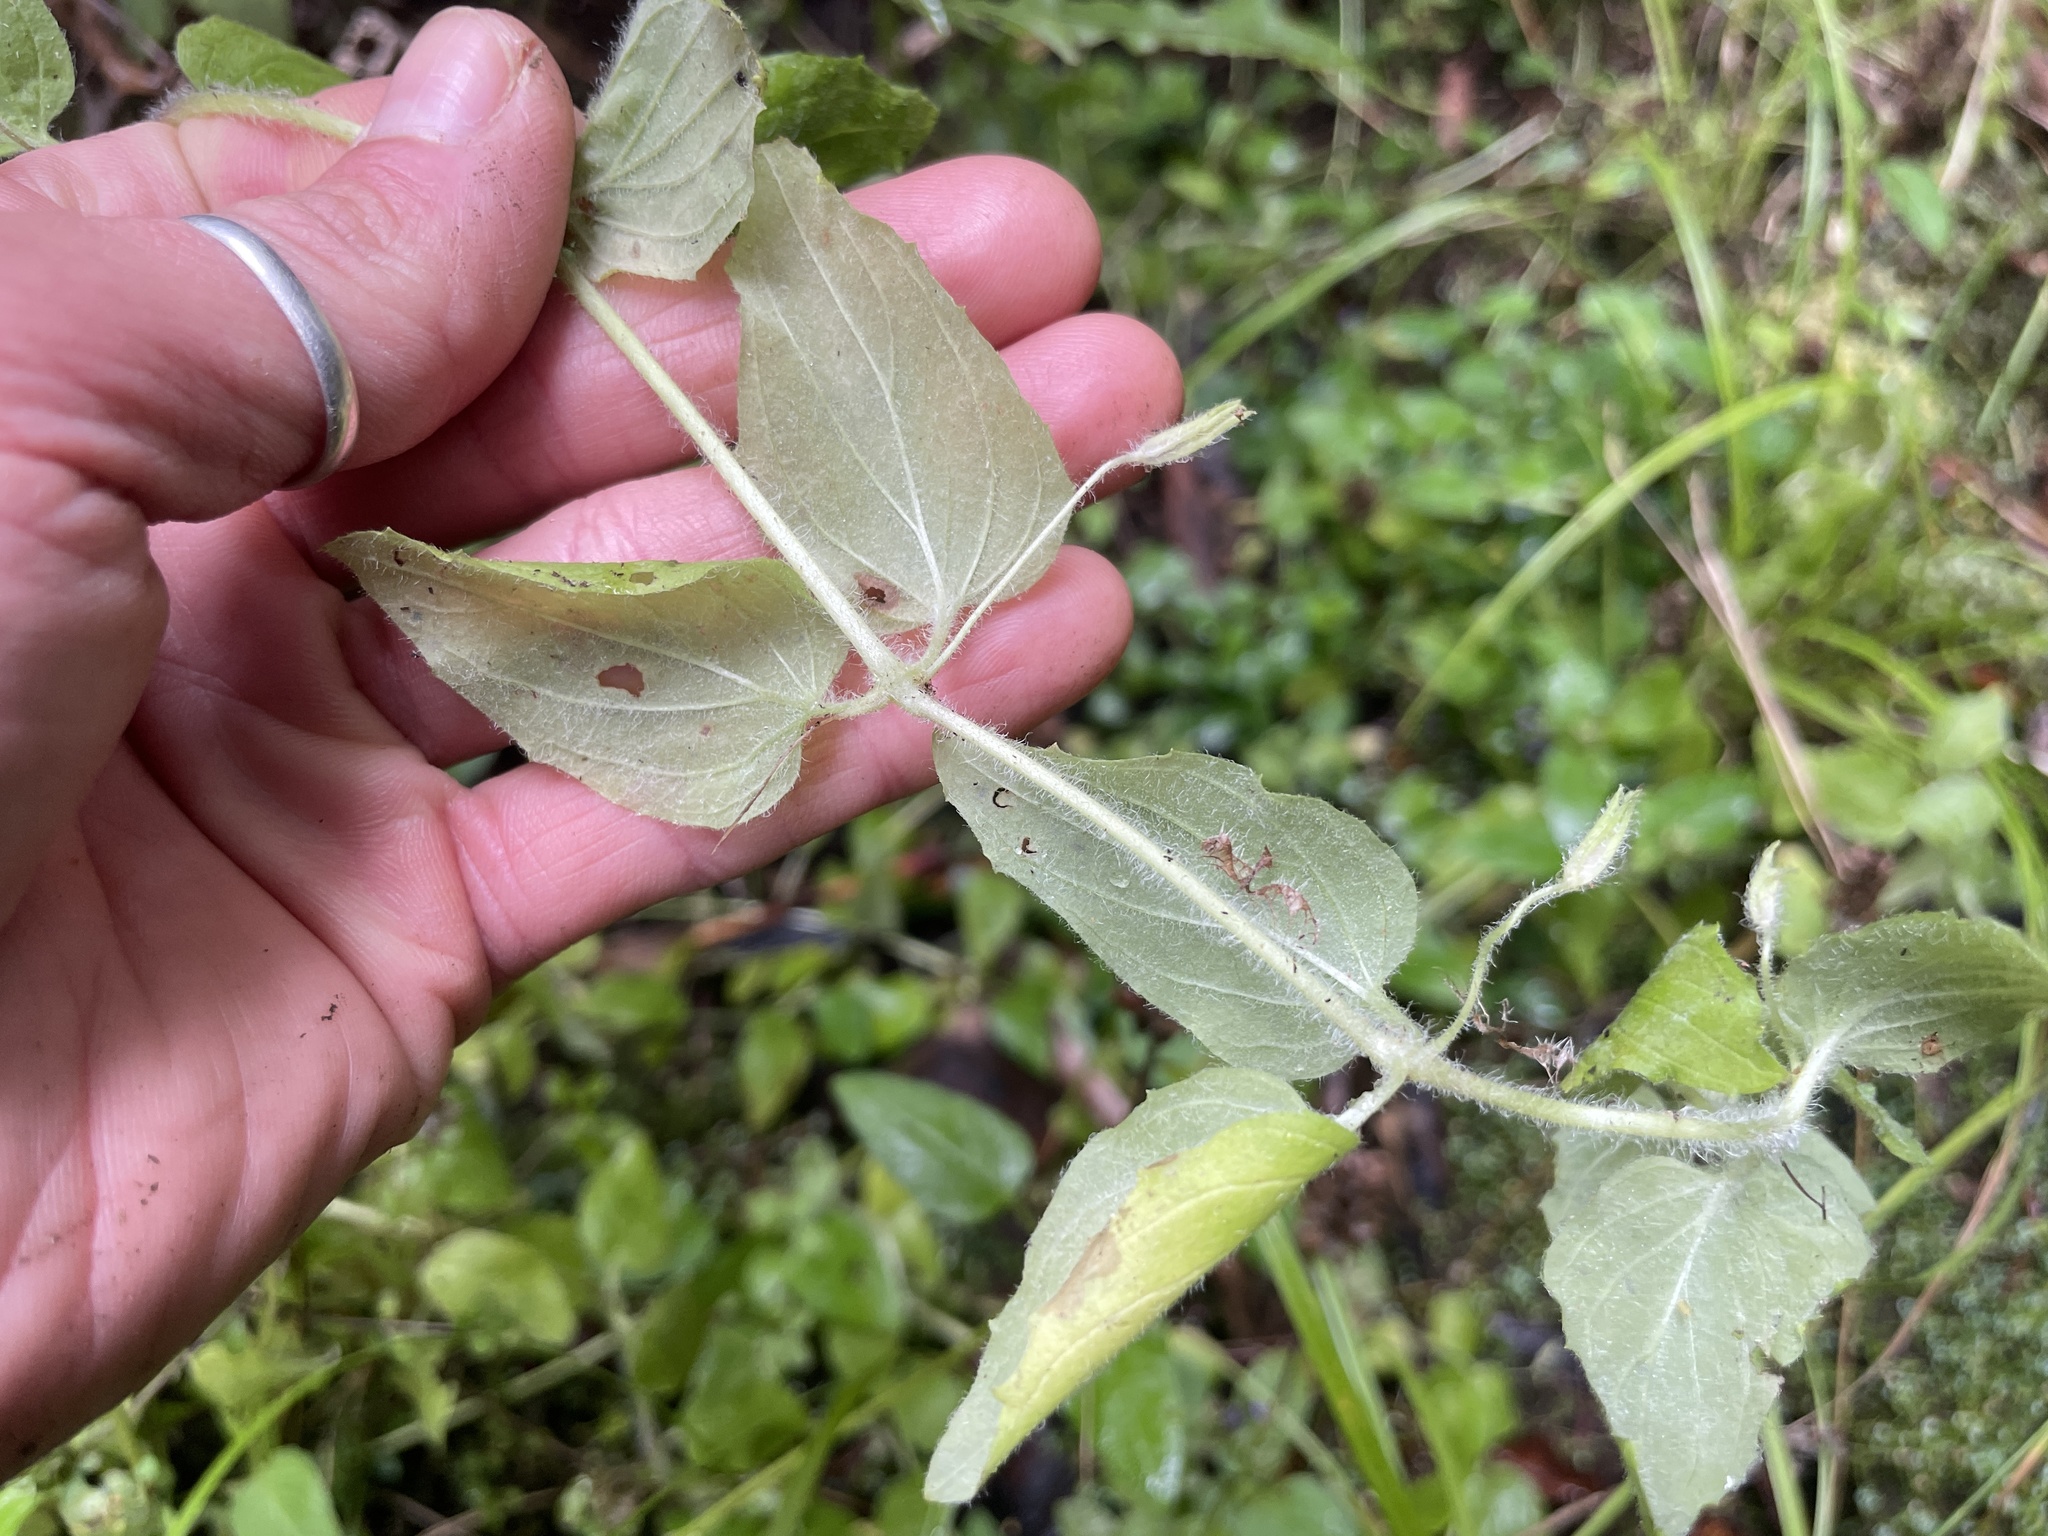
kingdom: Plantae
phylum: Tracheophyta
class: Magnoliopsida
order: Lamiales
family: Phrymaceae
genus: Erythranthe
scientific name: Erythranthe moschata
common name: Muskflower
